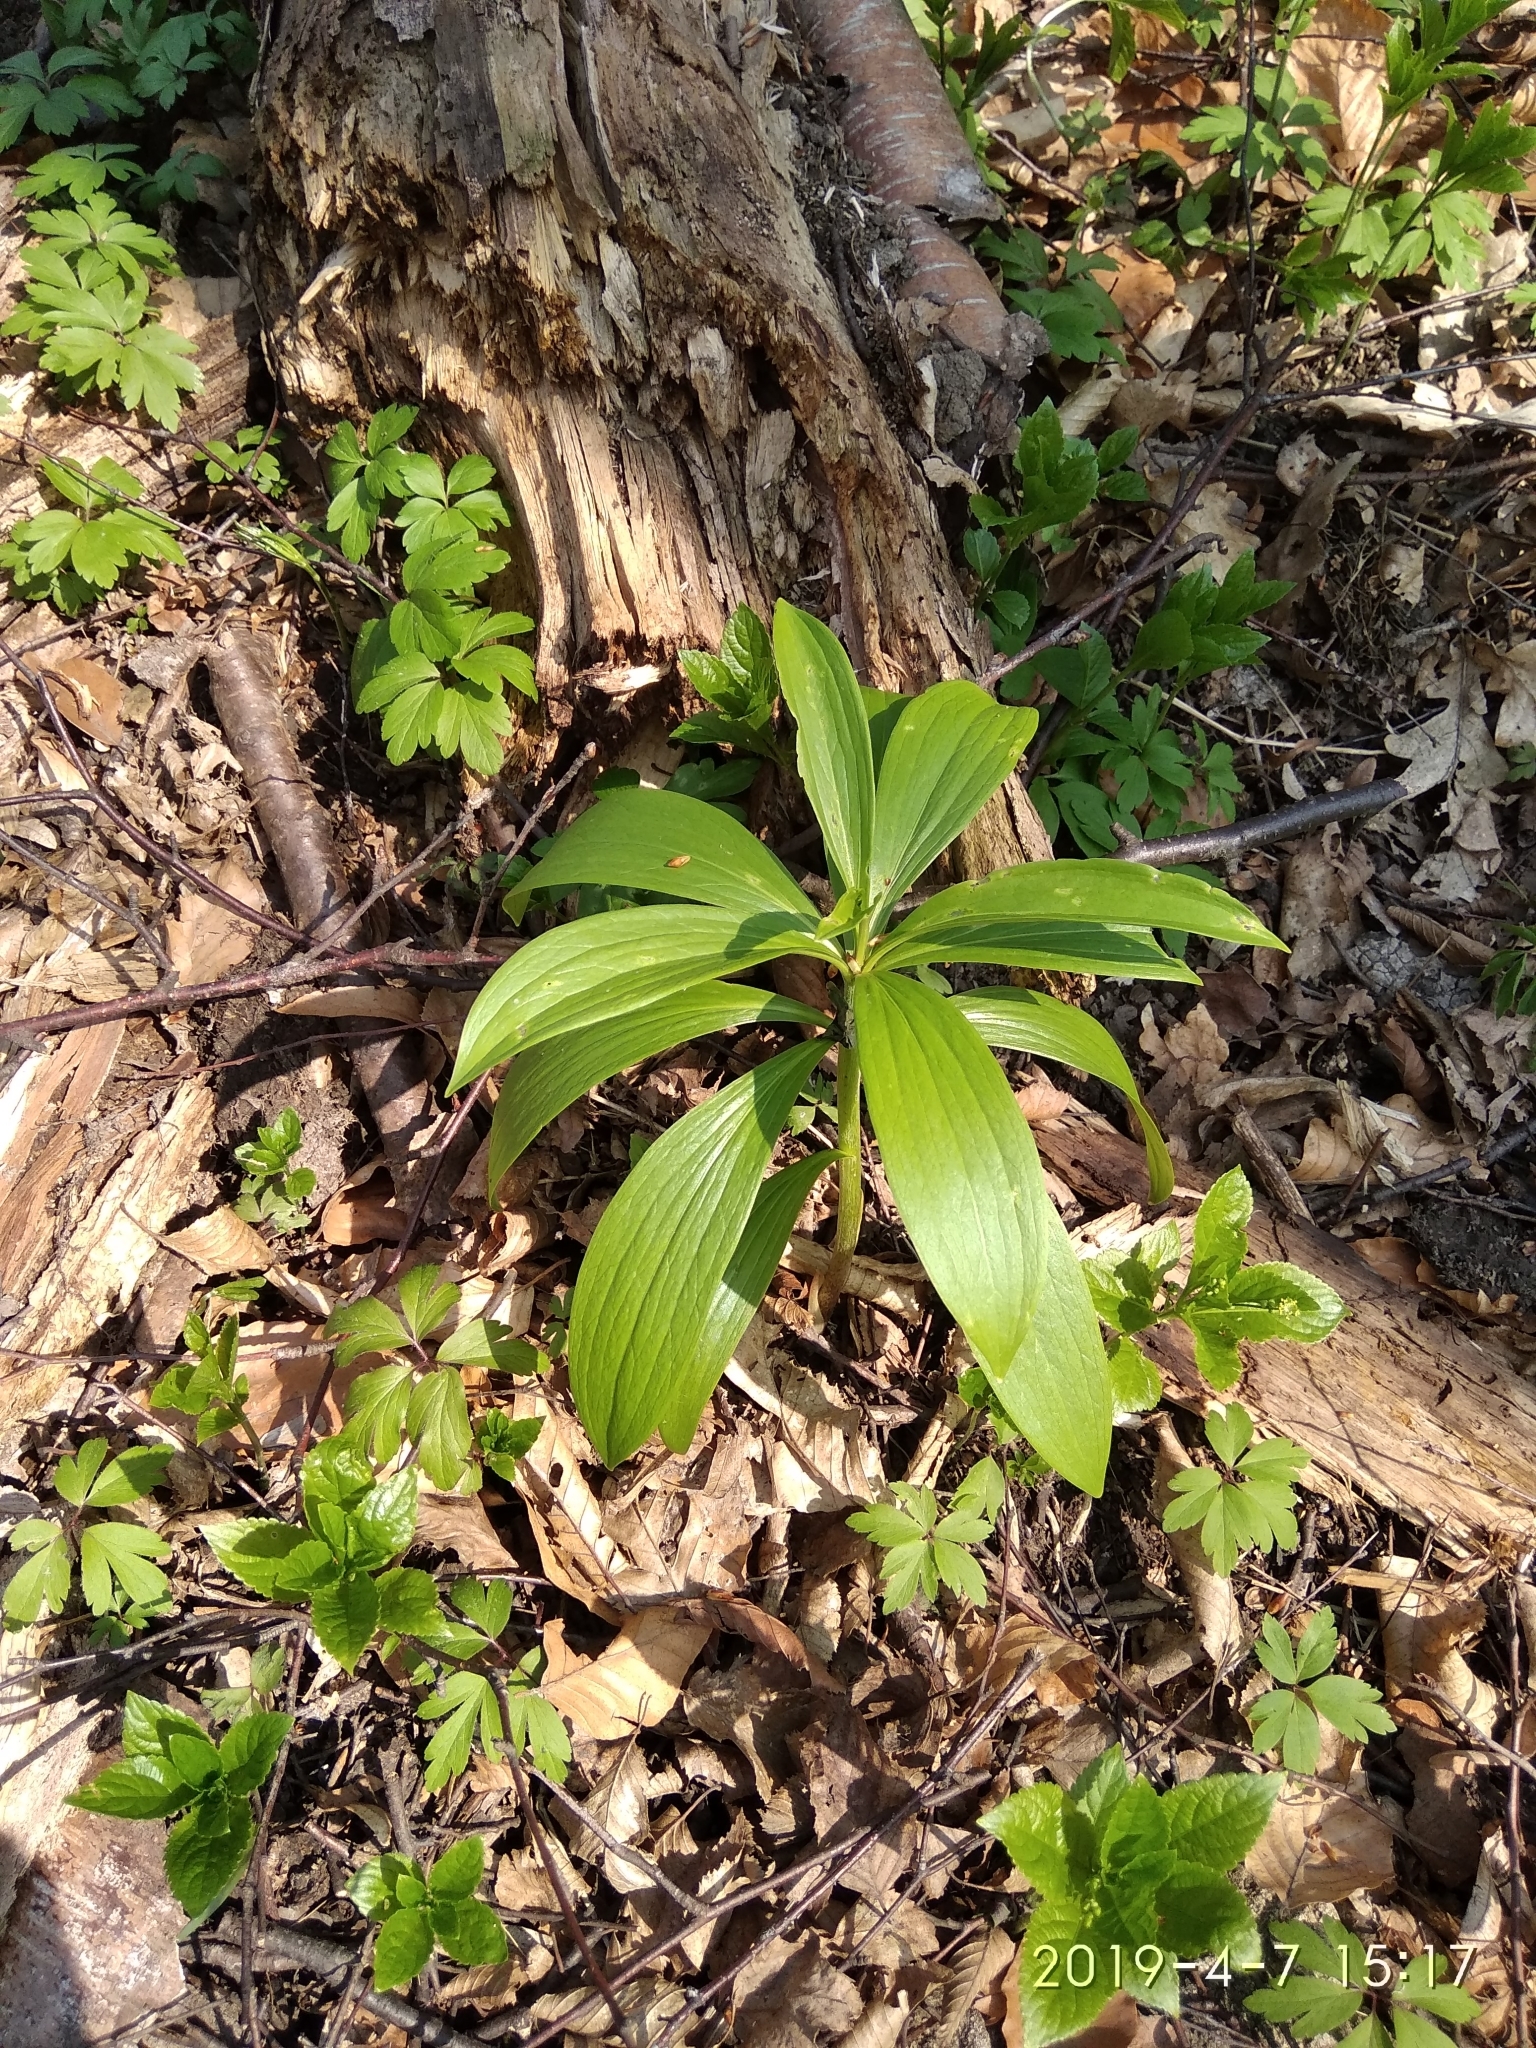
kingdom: Plantae
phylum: Tracheophyta
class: Liliopsida
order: Liliales
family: Liliaceae
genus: Lilium
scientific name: Lilium martagon
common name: Martagon lily
